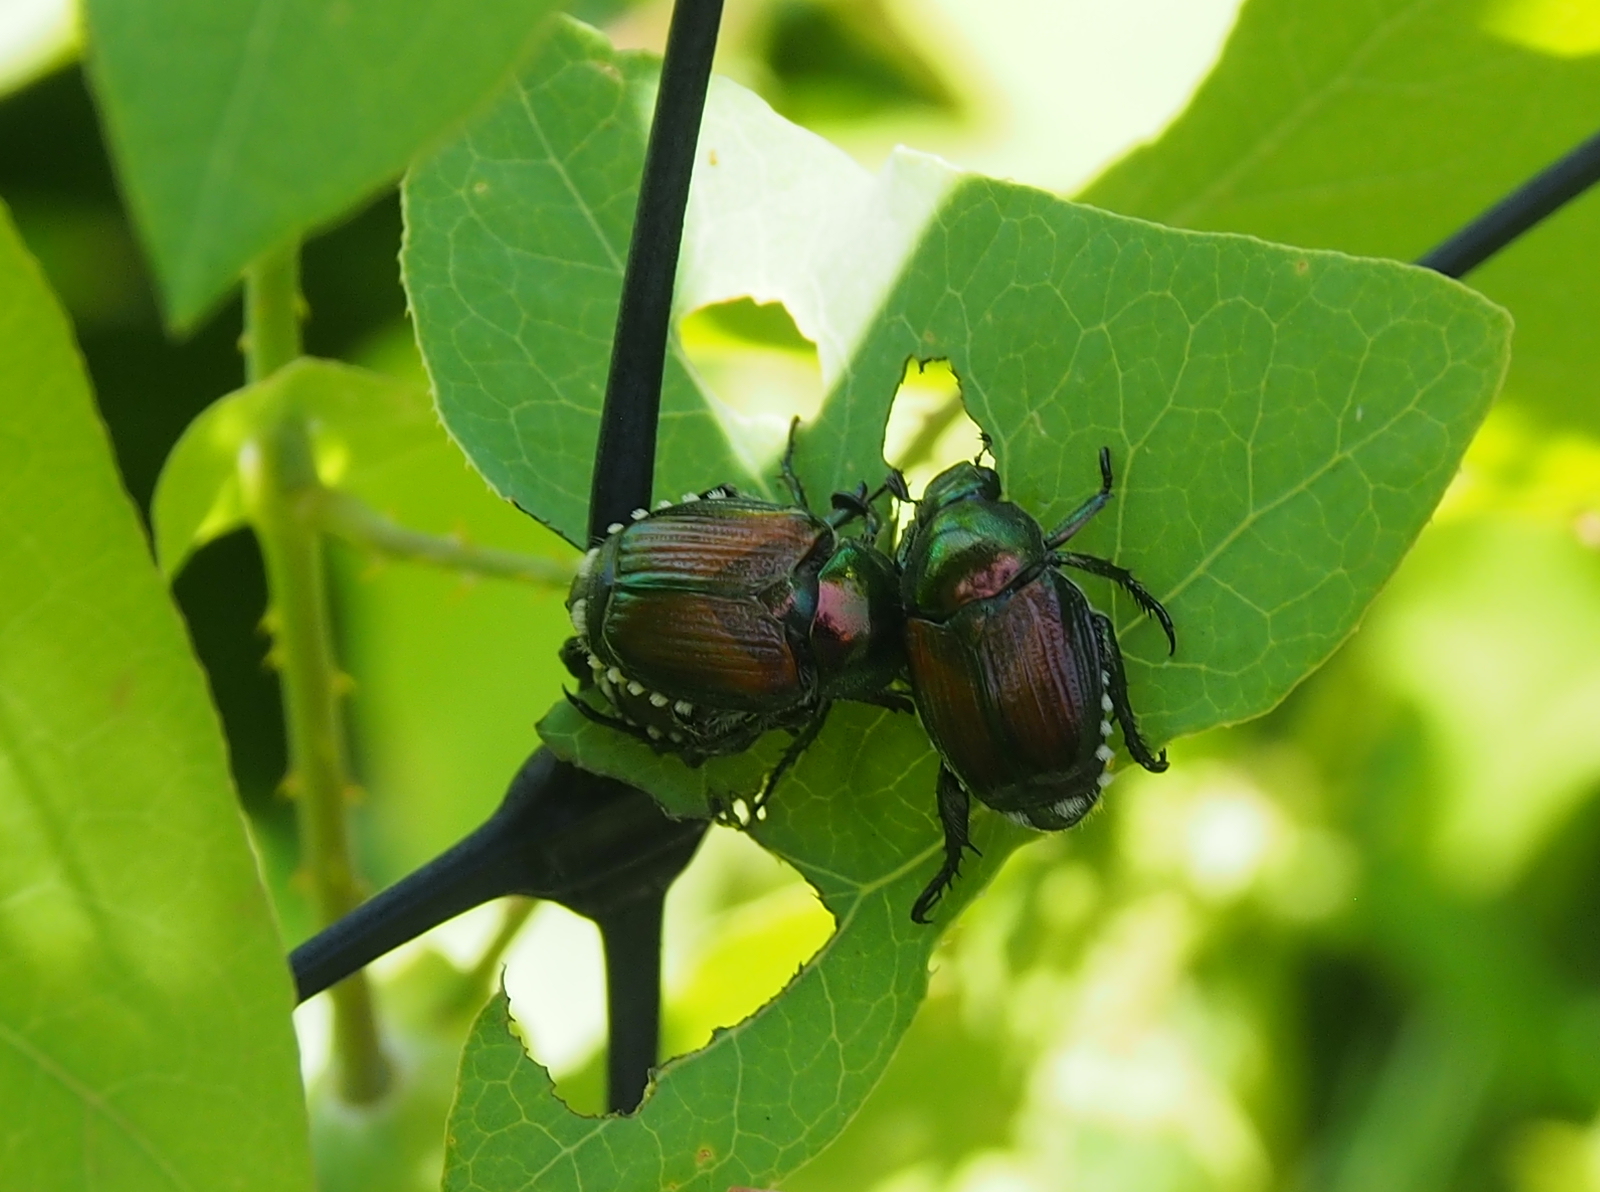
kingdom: Animalia
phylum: Arthropoda
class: Insecta
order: Coleoptera
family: Scarabaeidae
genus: Popillia
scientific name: Popillia japonica
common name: Japanese beetle
